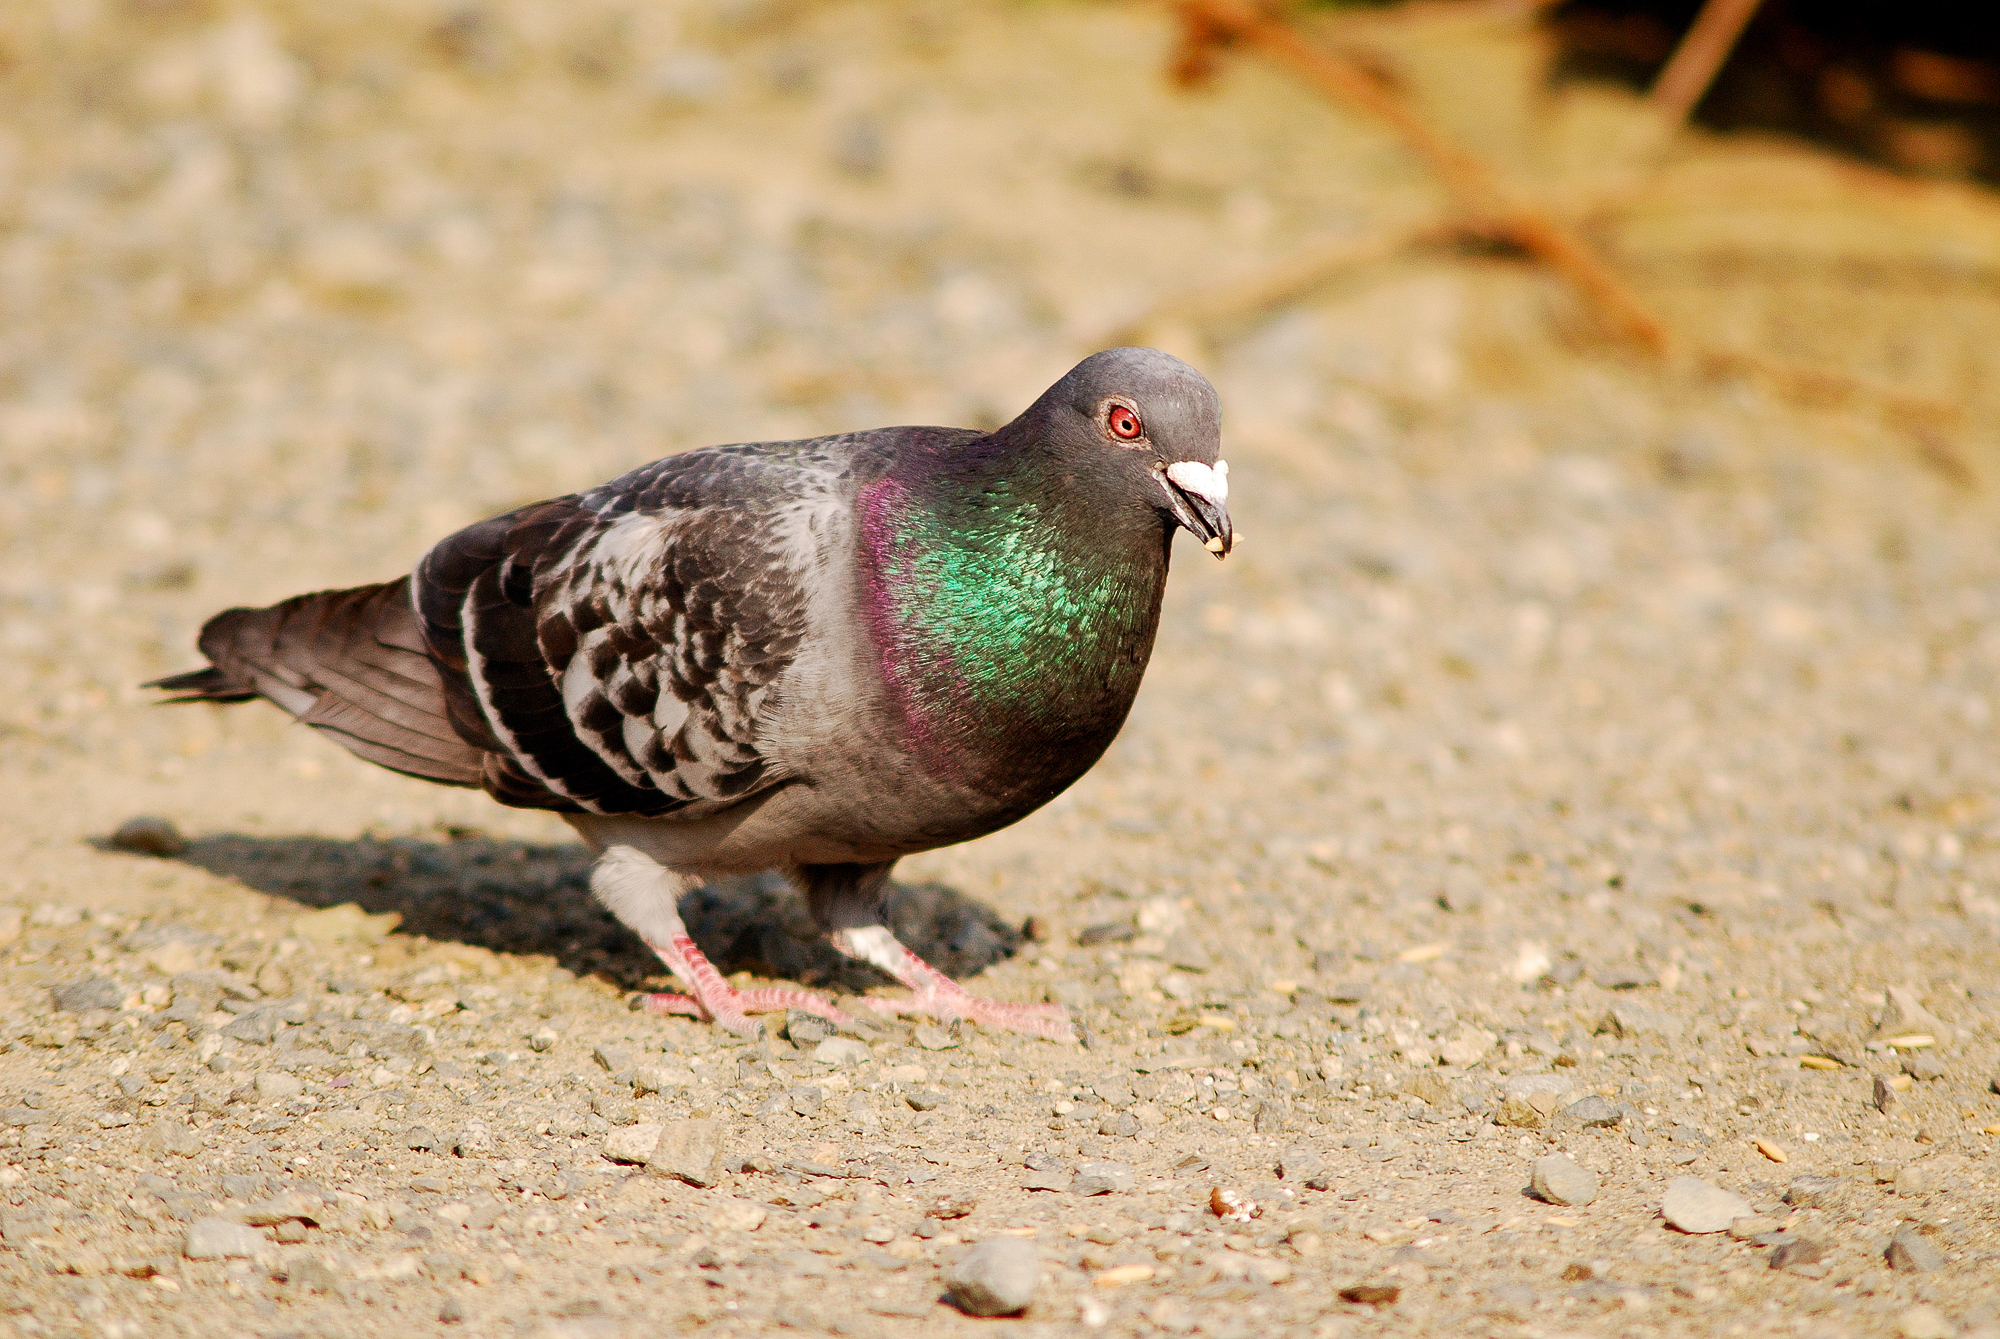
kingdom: Animalia
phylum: Chordata
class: Aves
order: Columbiformes
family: Columbidae
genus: Columba
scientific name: Columba livia
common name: Rock pigeon
